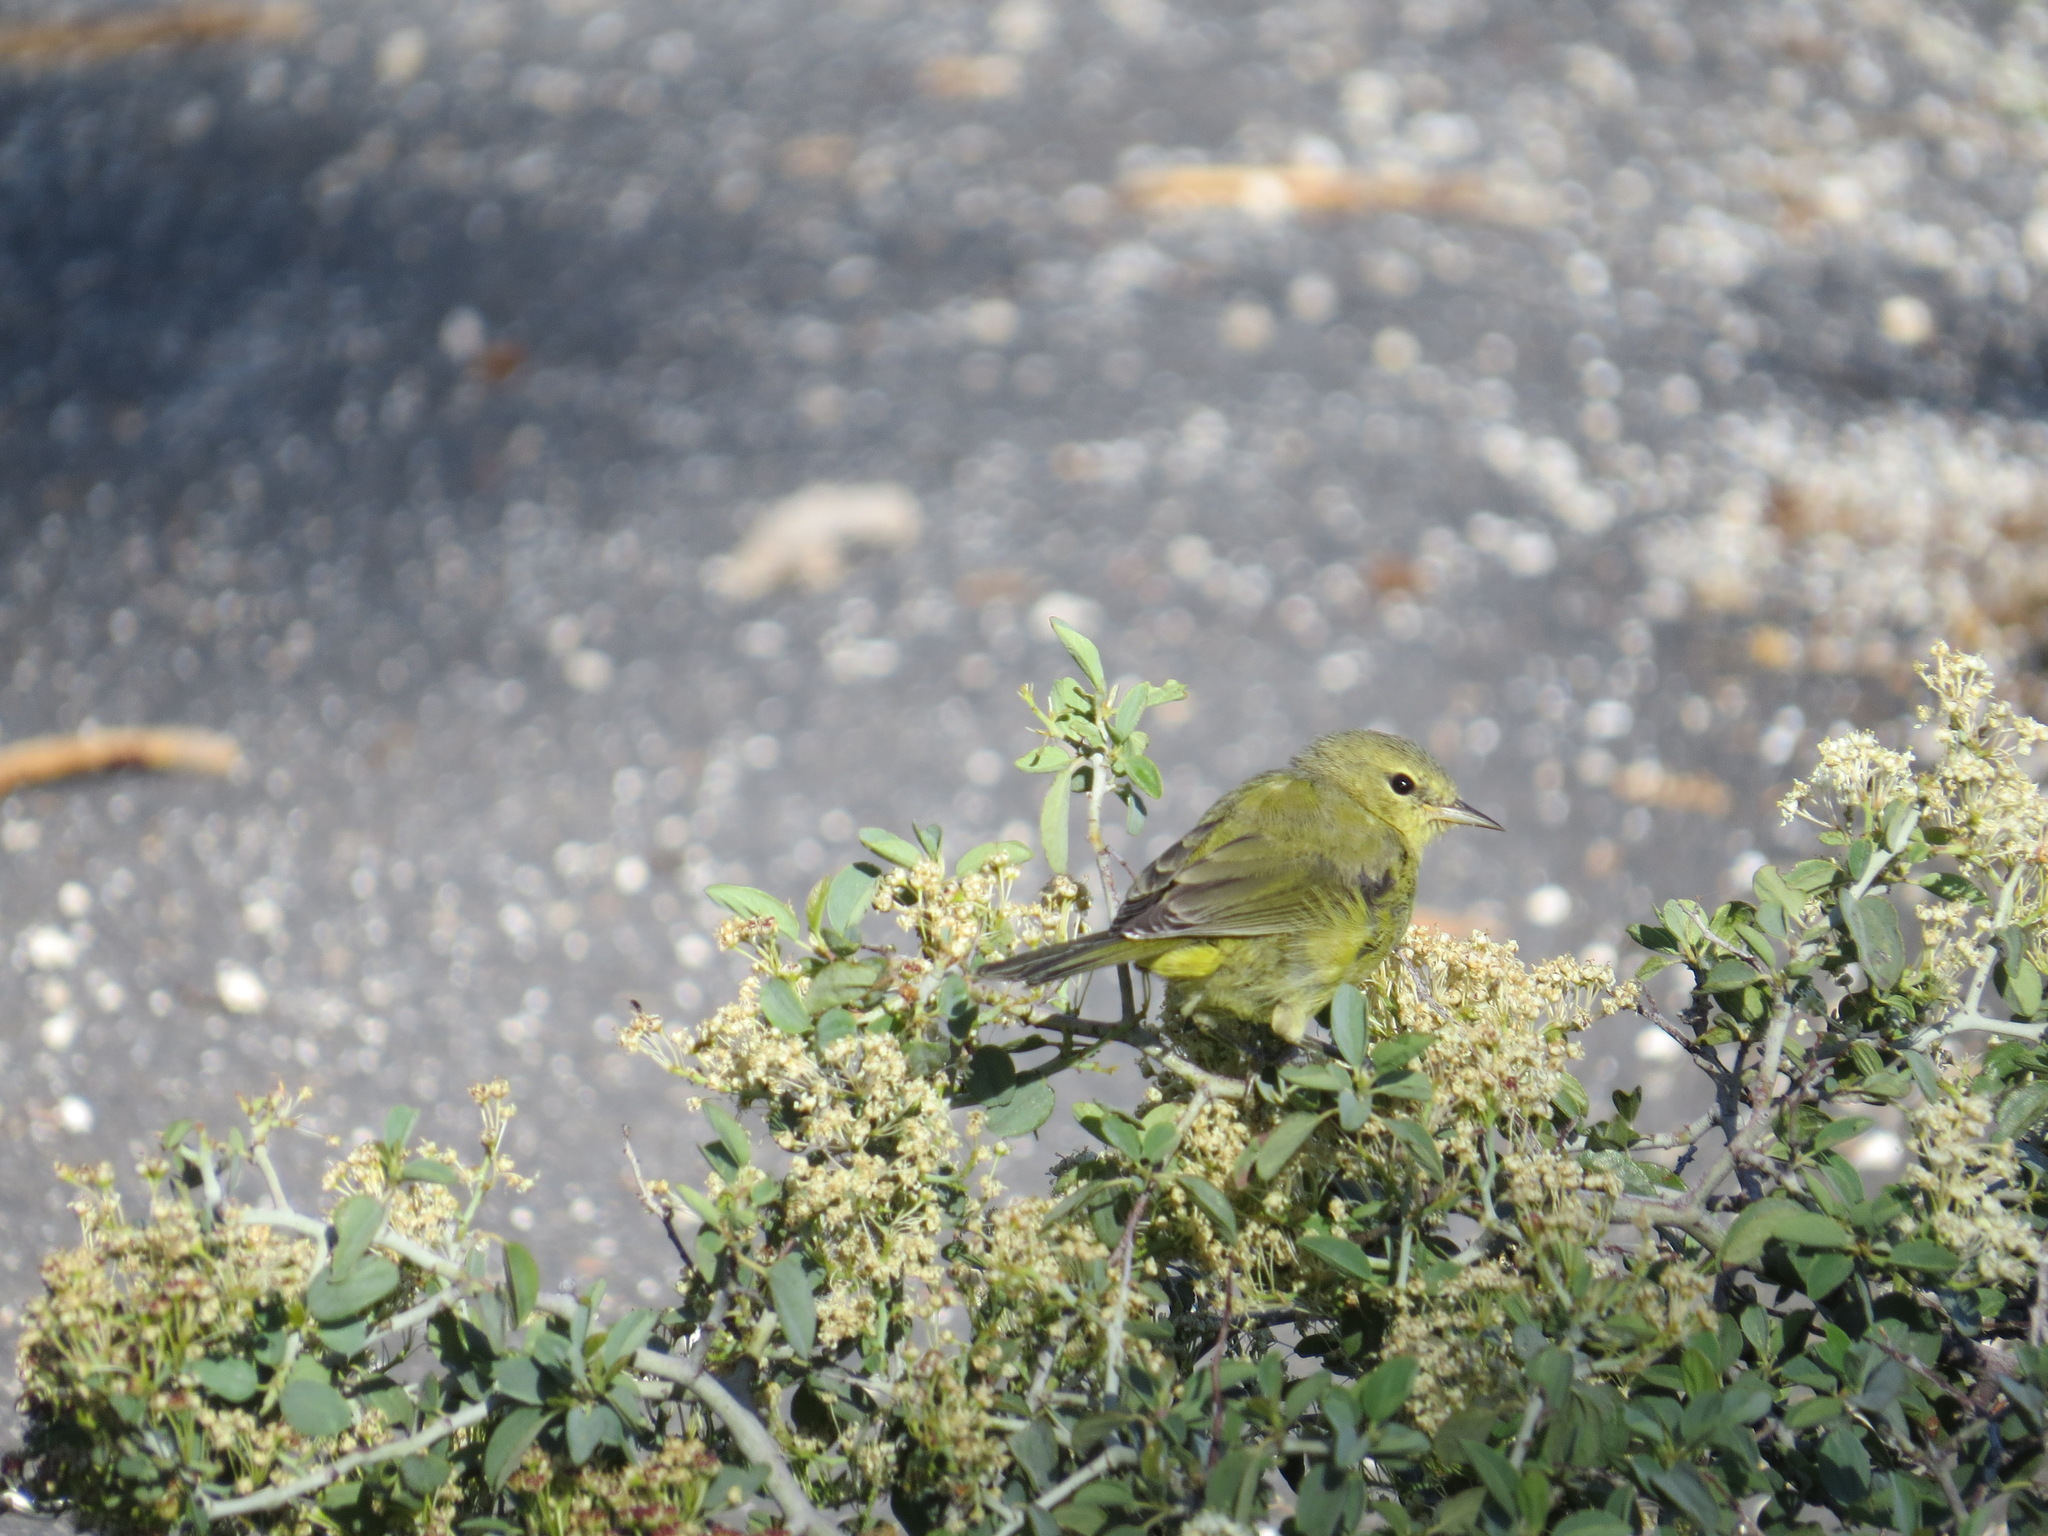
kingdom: Animalia
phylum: Chordata
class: Aves
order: Passeriformes
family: Parulidae
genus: Leiothlypis
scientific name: Leiothlypis celata
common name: Orange-crowned warbler
